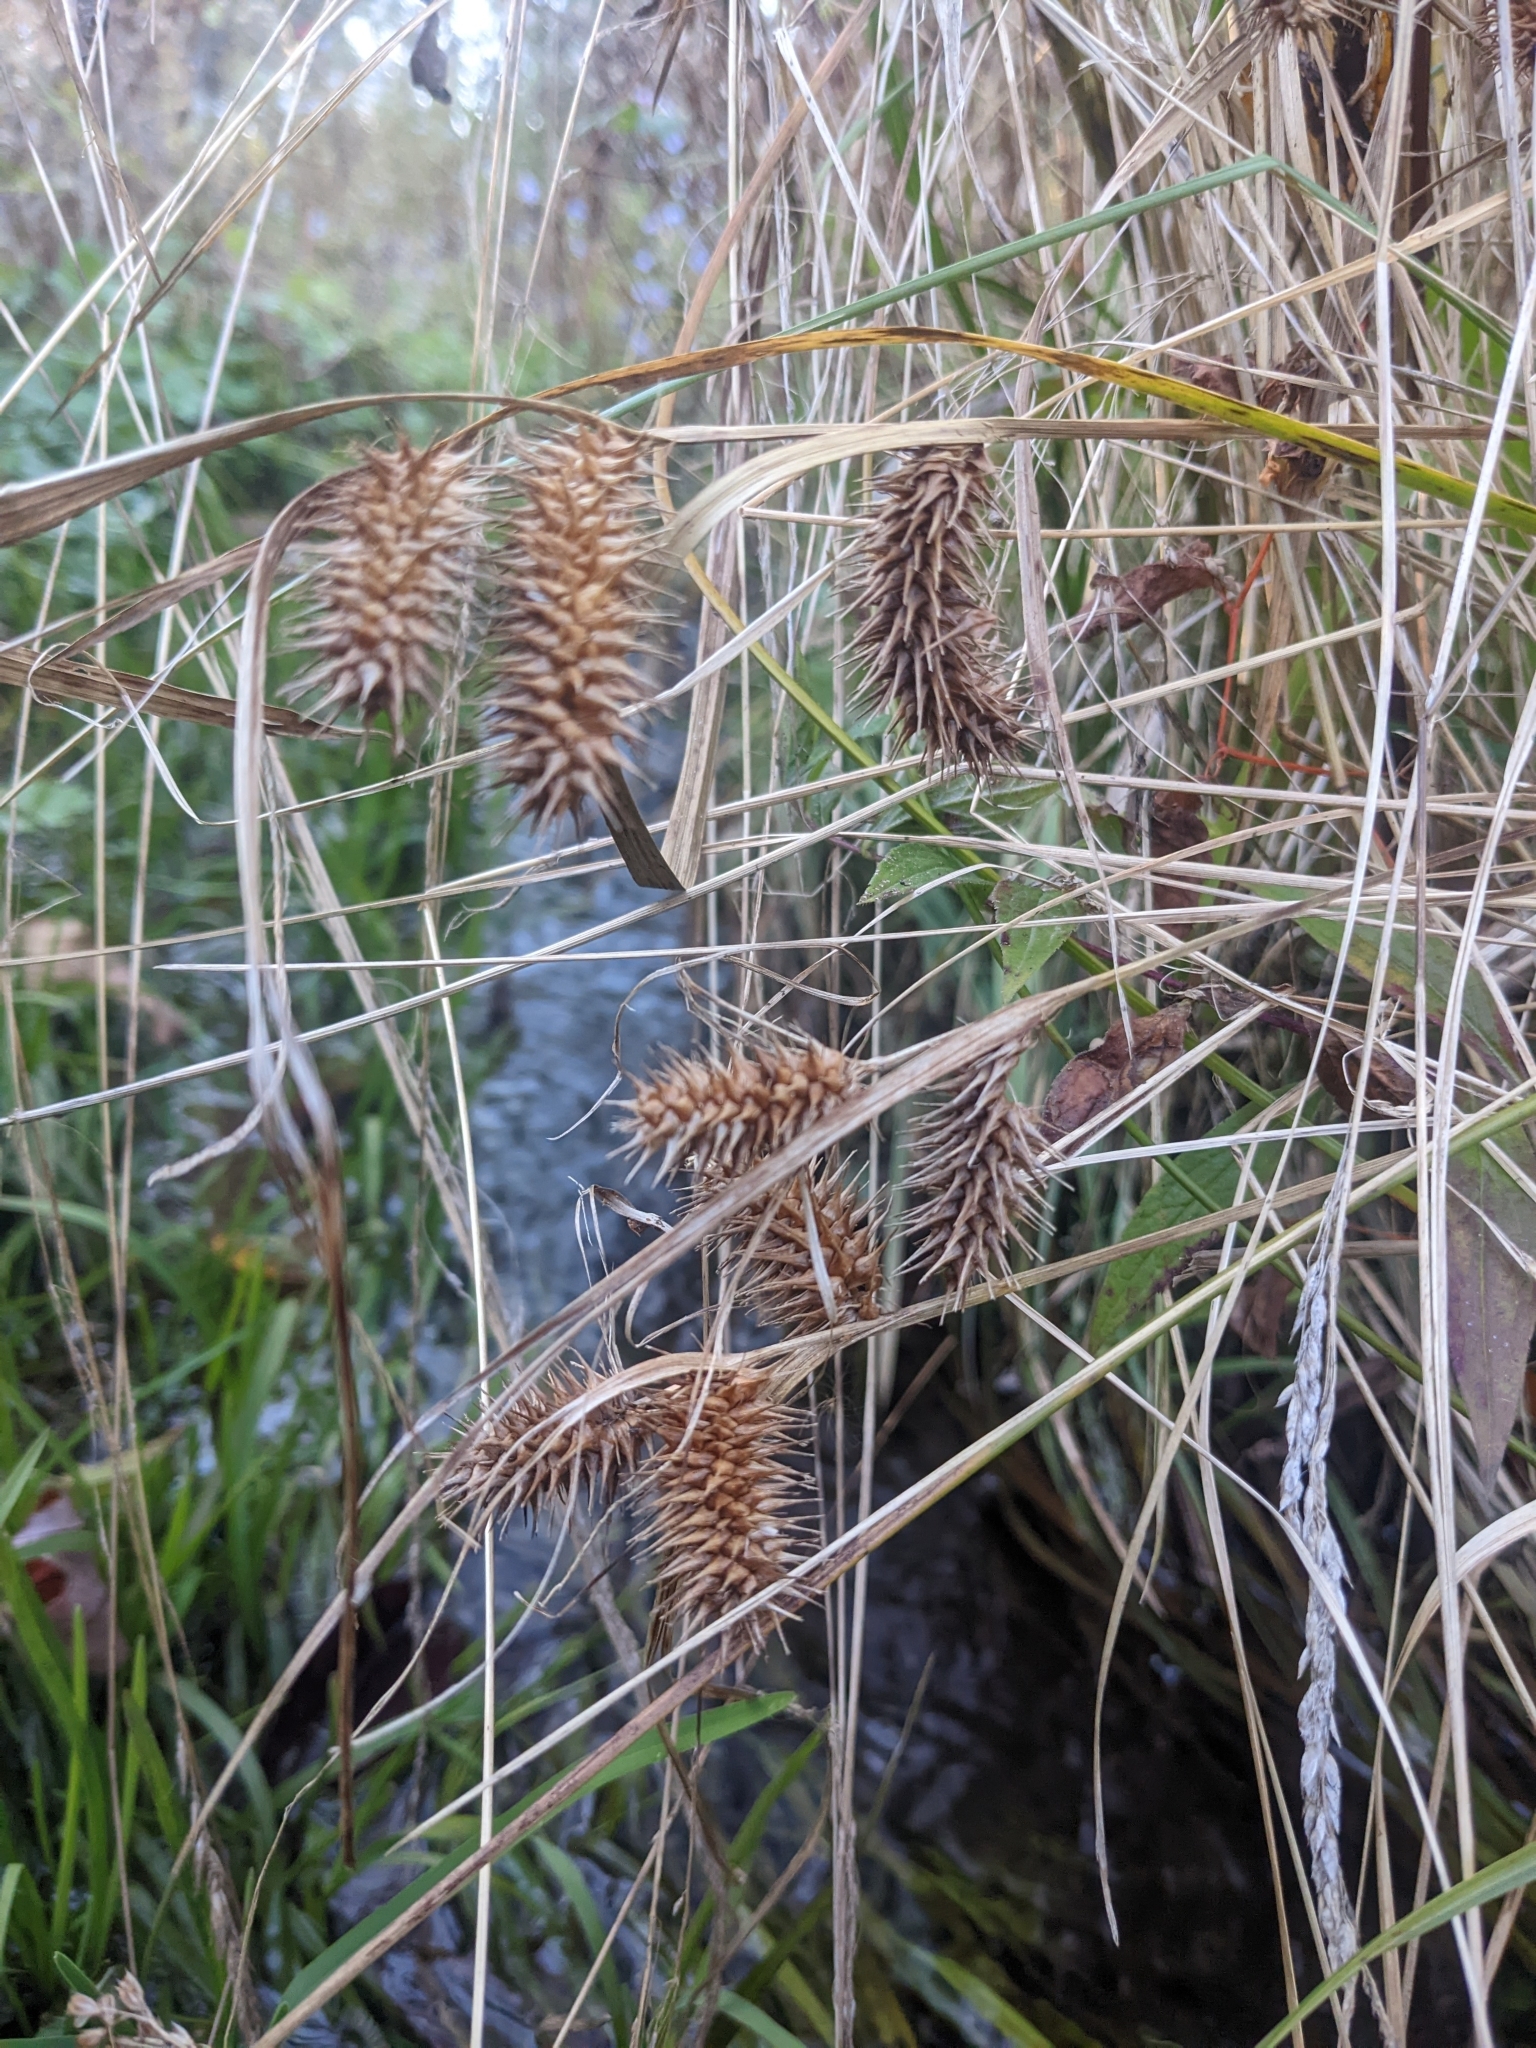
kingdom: Plantae
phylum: Tracheophyta
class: Liliopsida
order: Poales
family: Cyperaceae
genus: Carex
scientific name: Carex lurida
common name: Sallow sedge
